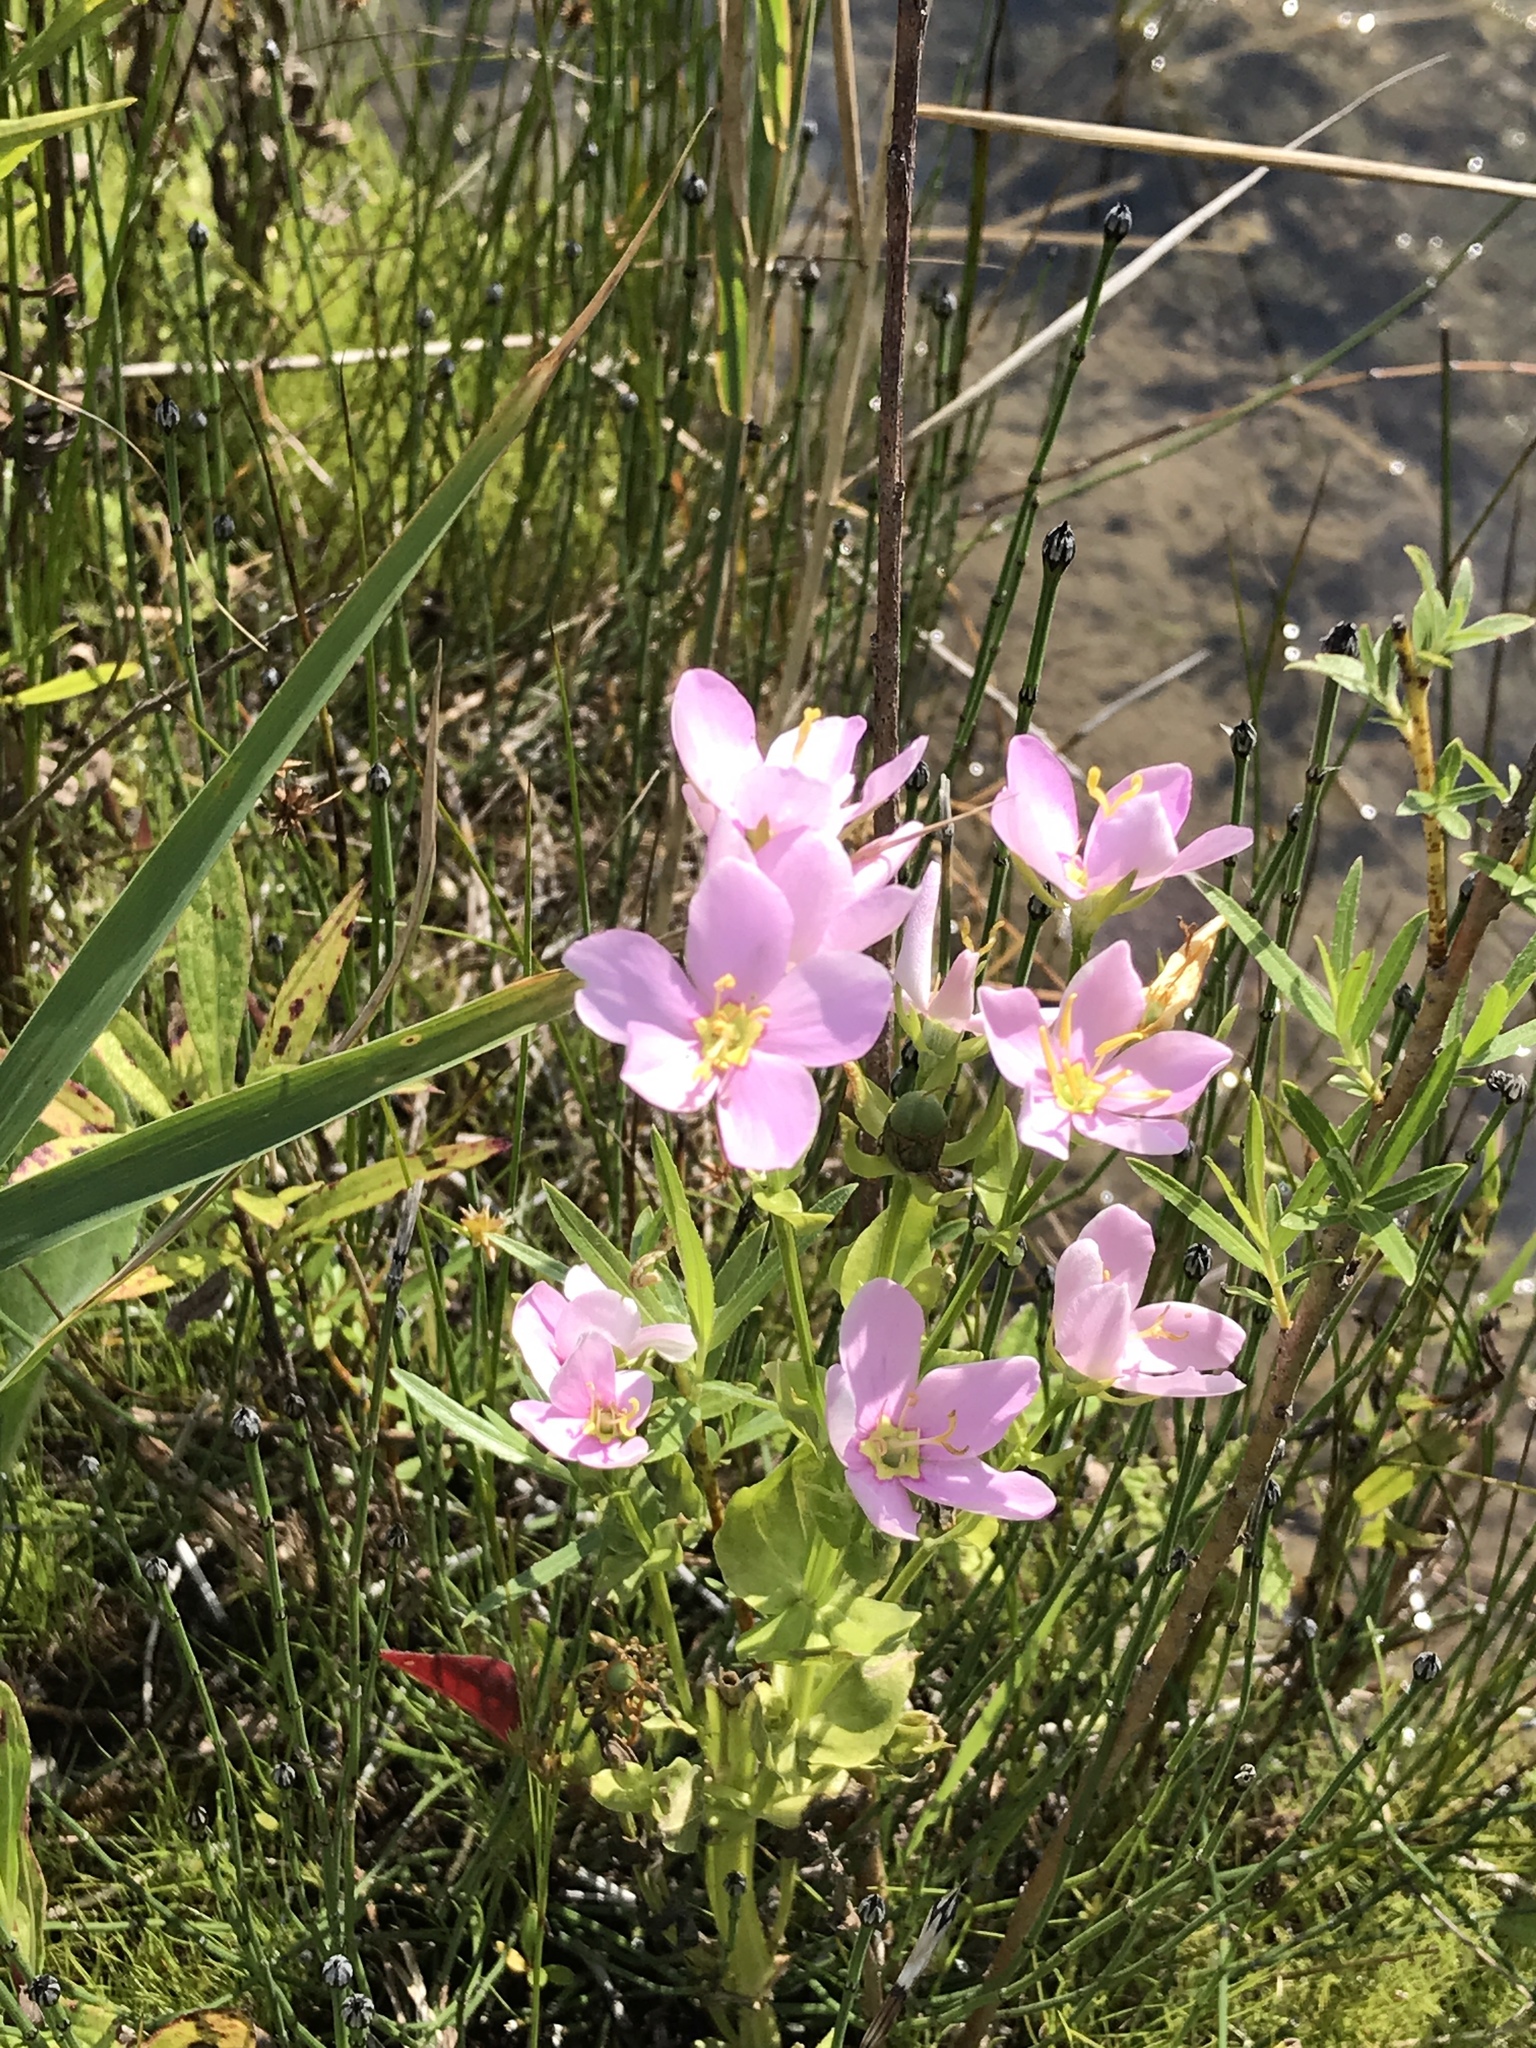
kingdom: Plantae
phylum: Tracheophyta
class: Magnoliopsida
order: Gentianales
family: Gentianaceae
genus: Sabatia
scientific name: Sabatia angularis
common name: Rose-pink
